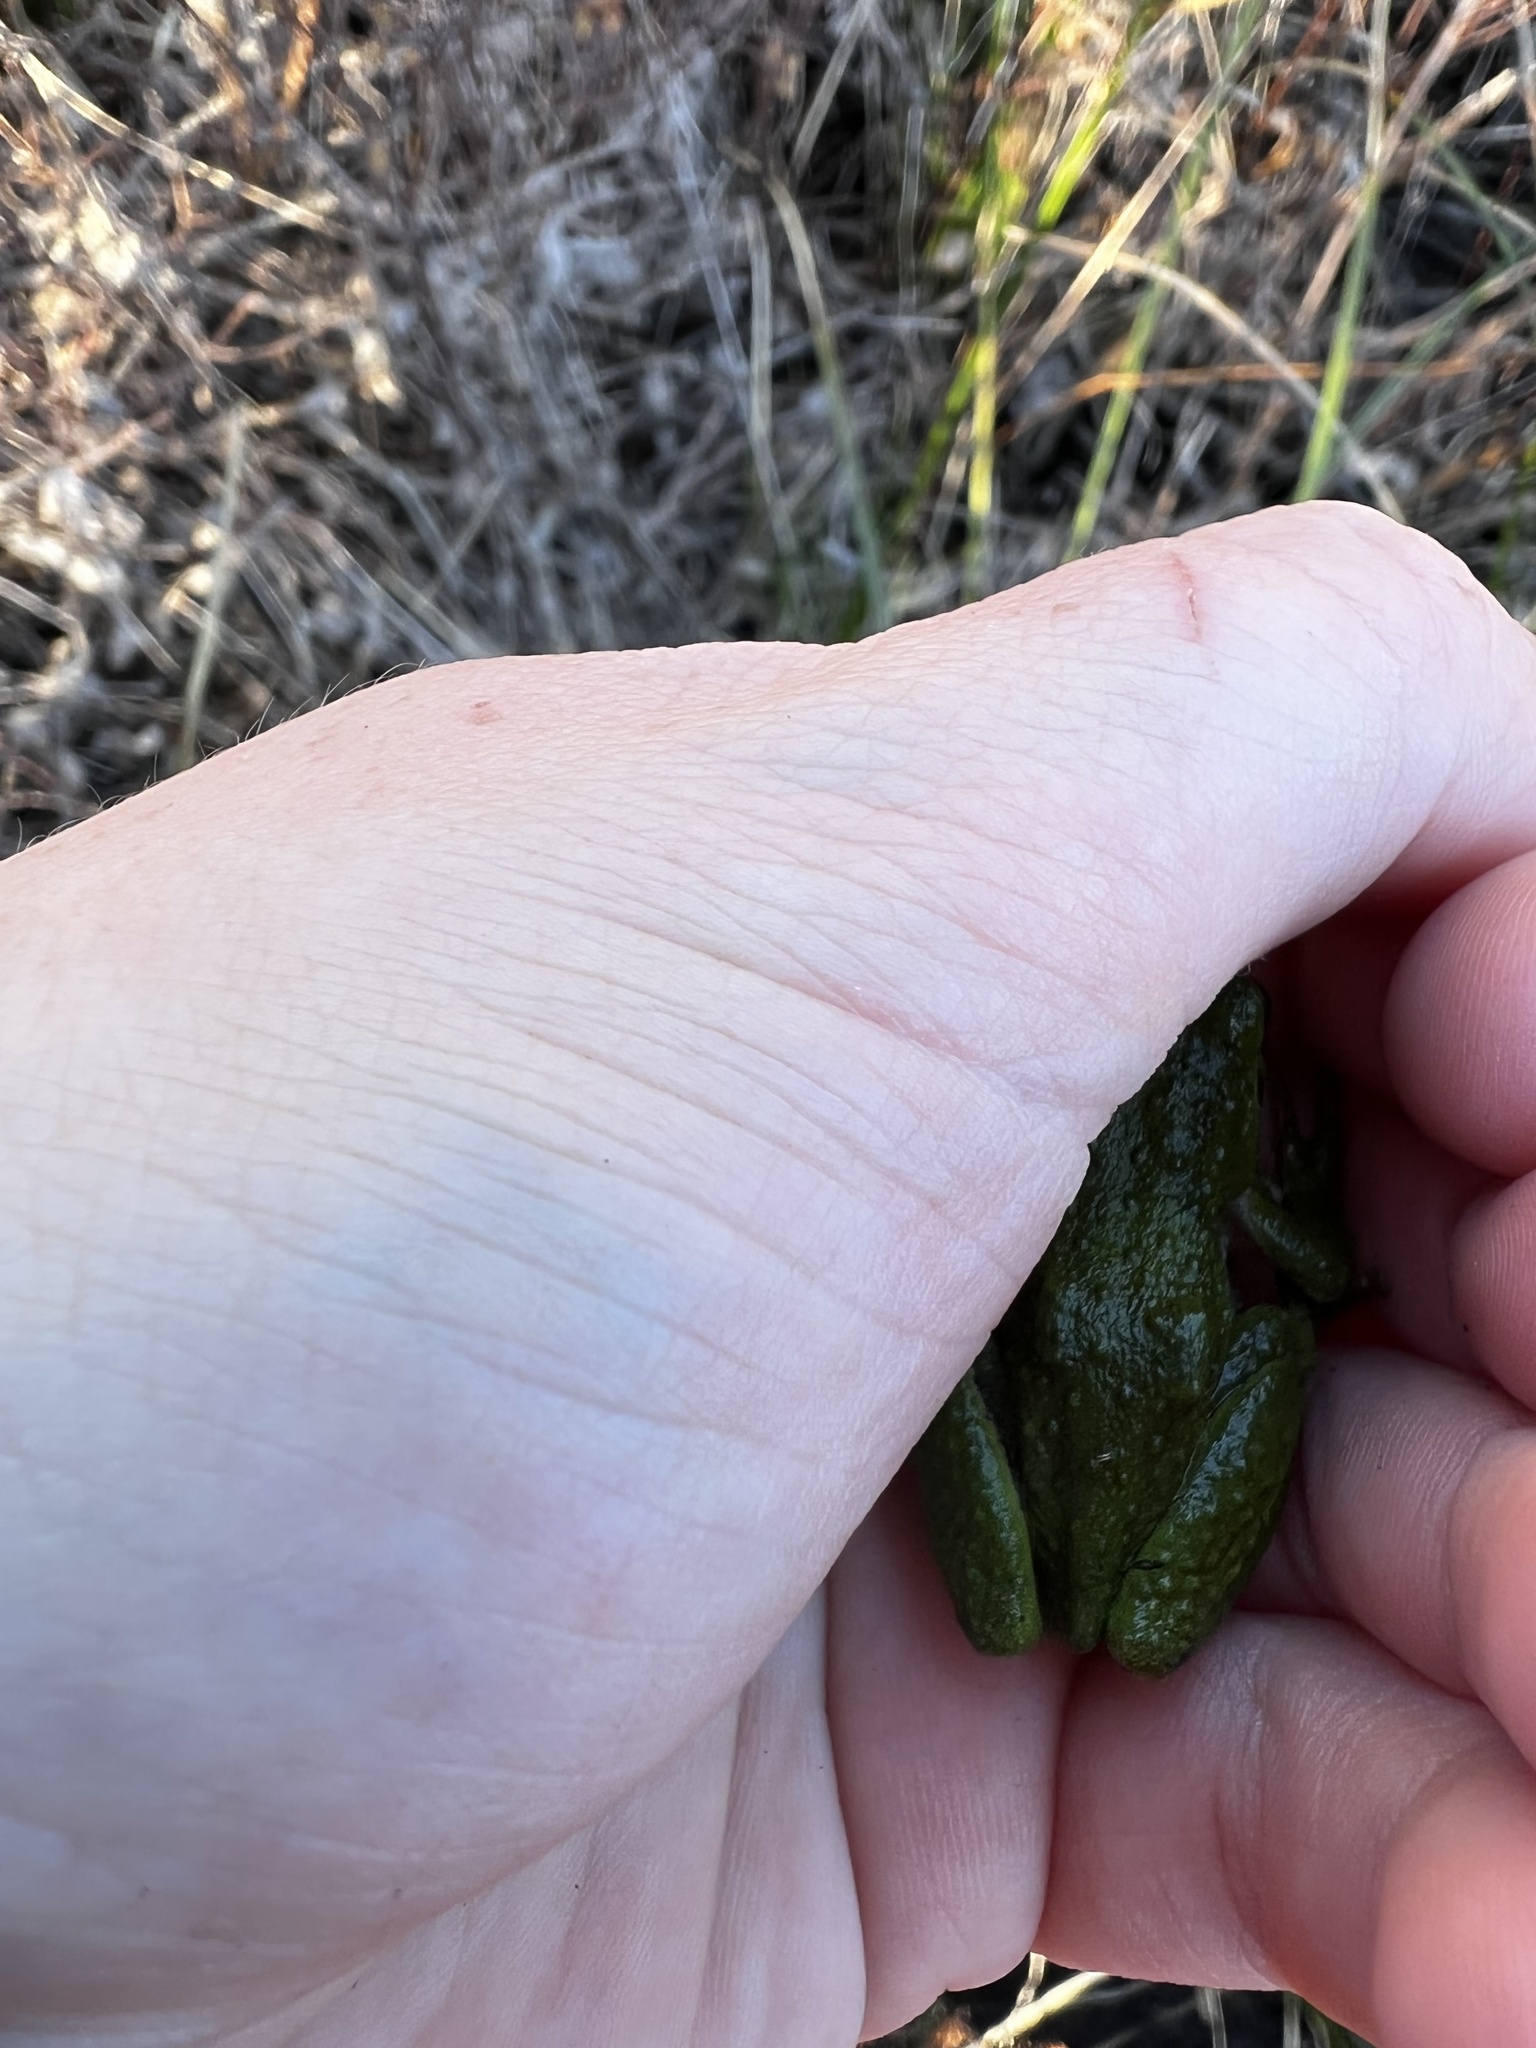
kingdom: Animalia
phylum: Chordata
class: Amphibia
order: Anura
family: Hylidae
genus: Pseudacris
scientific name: Pseudacris regilla
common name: Pacific chorus frog
